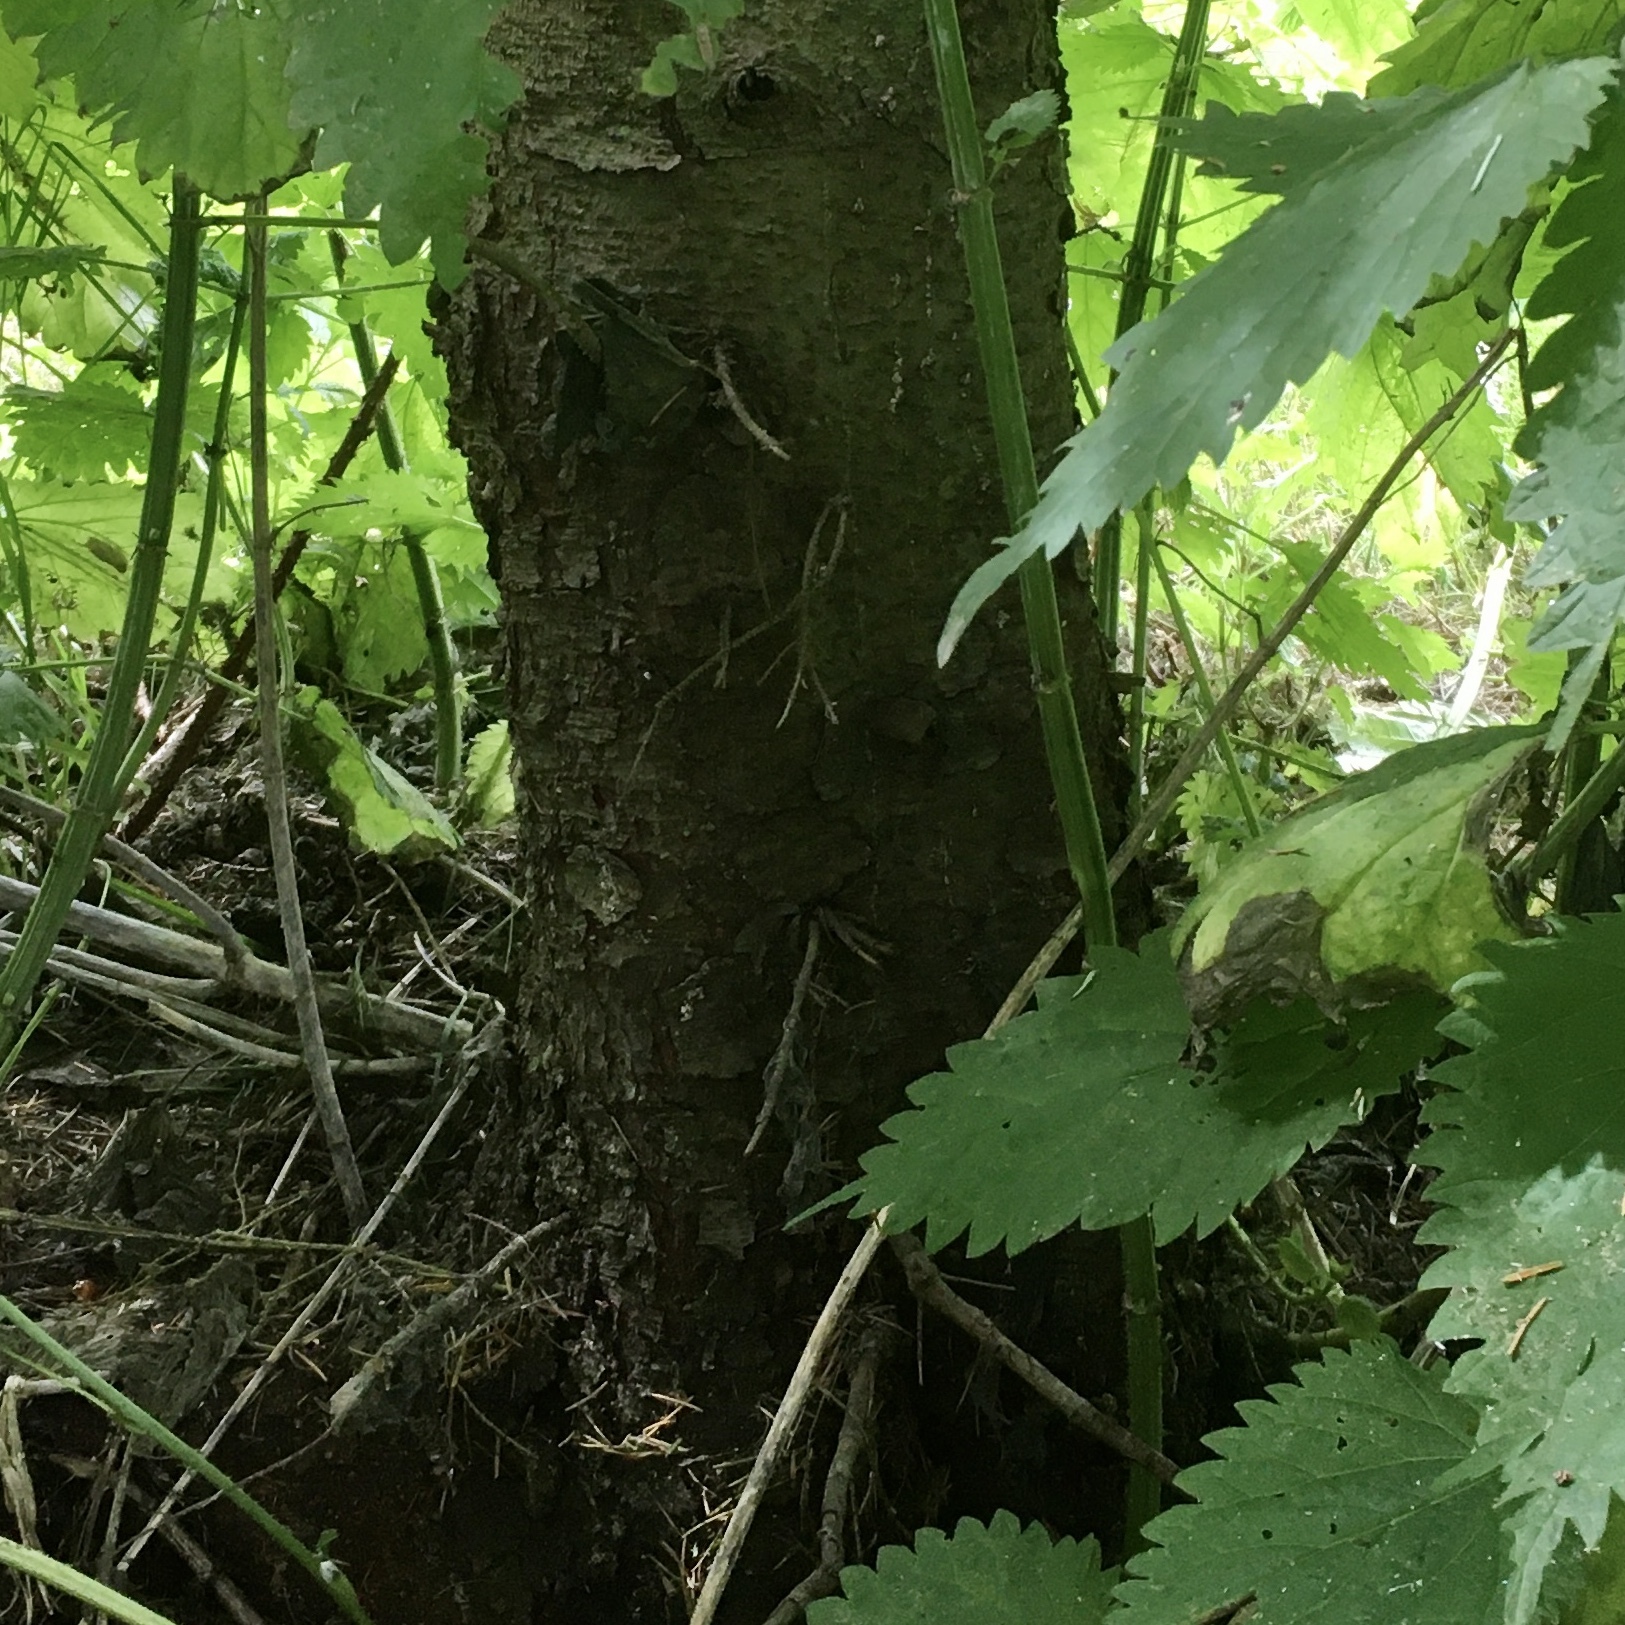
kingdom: Plantae
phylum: Tracheophyta
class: Pinopsida
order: Pinales
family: Pinaceae
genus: Picea
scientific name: Picea sitchensis
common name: Sitka spruce
